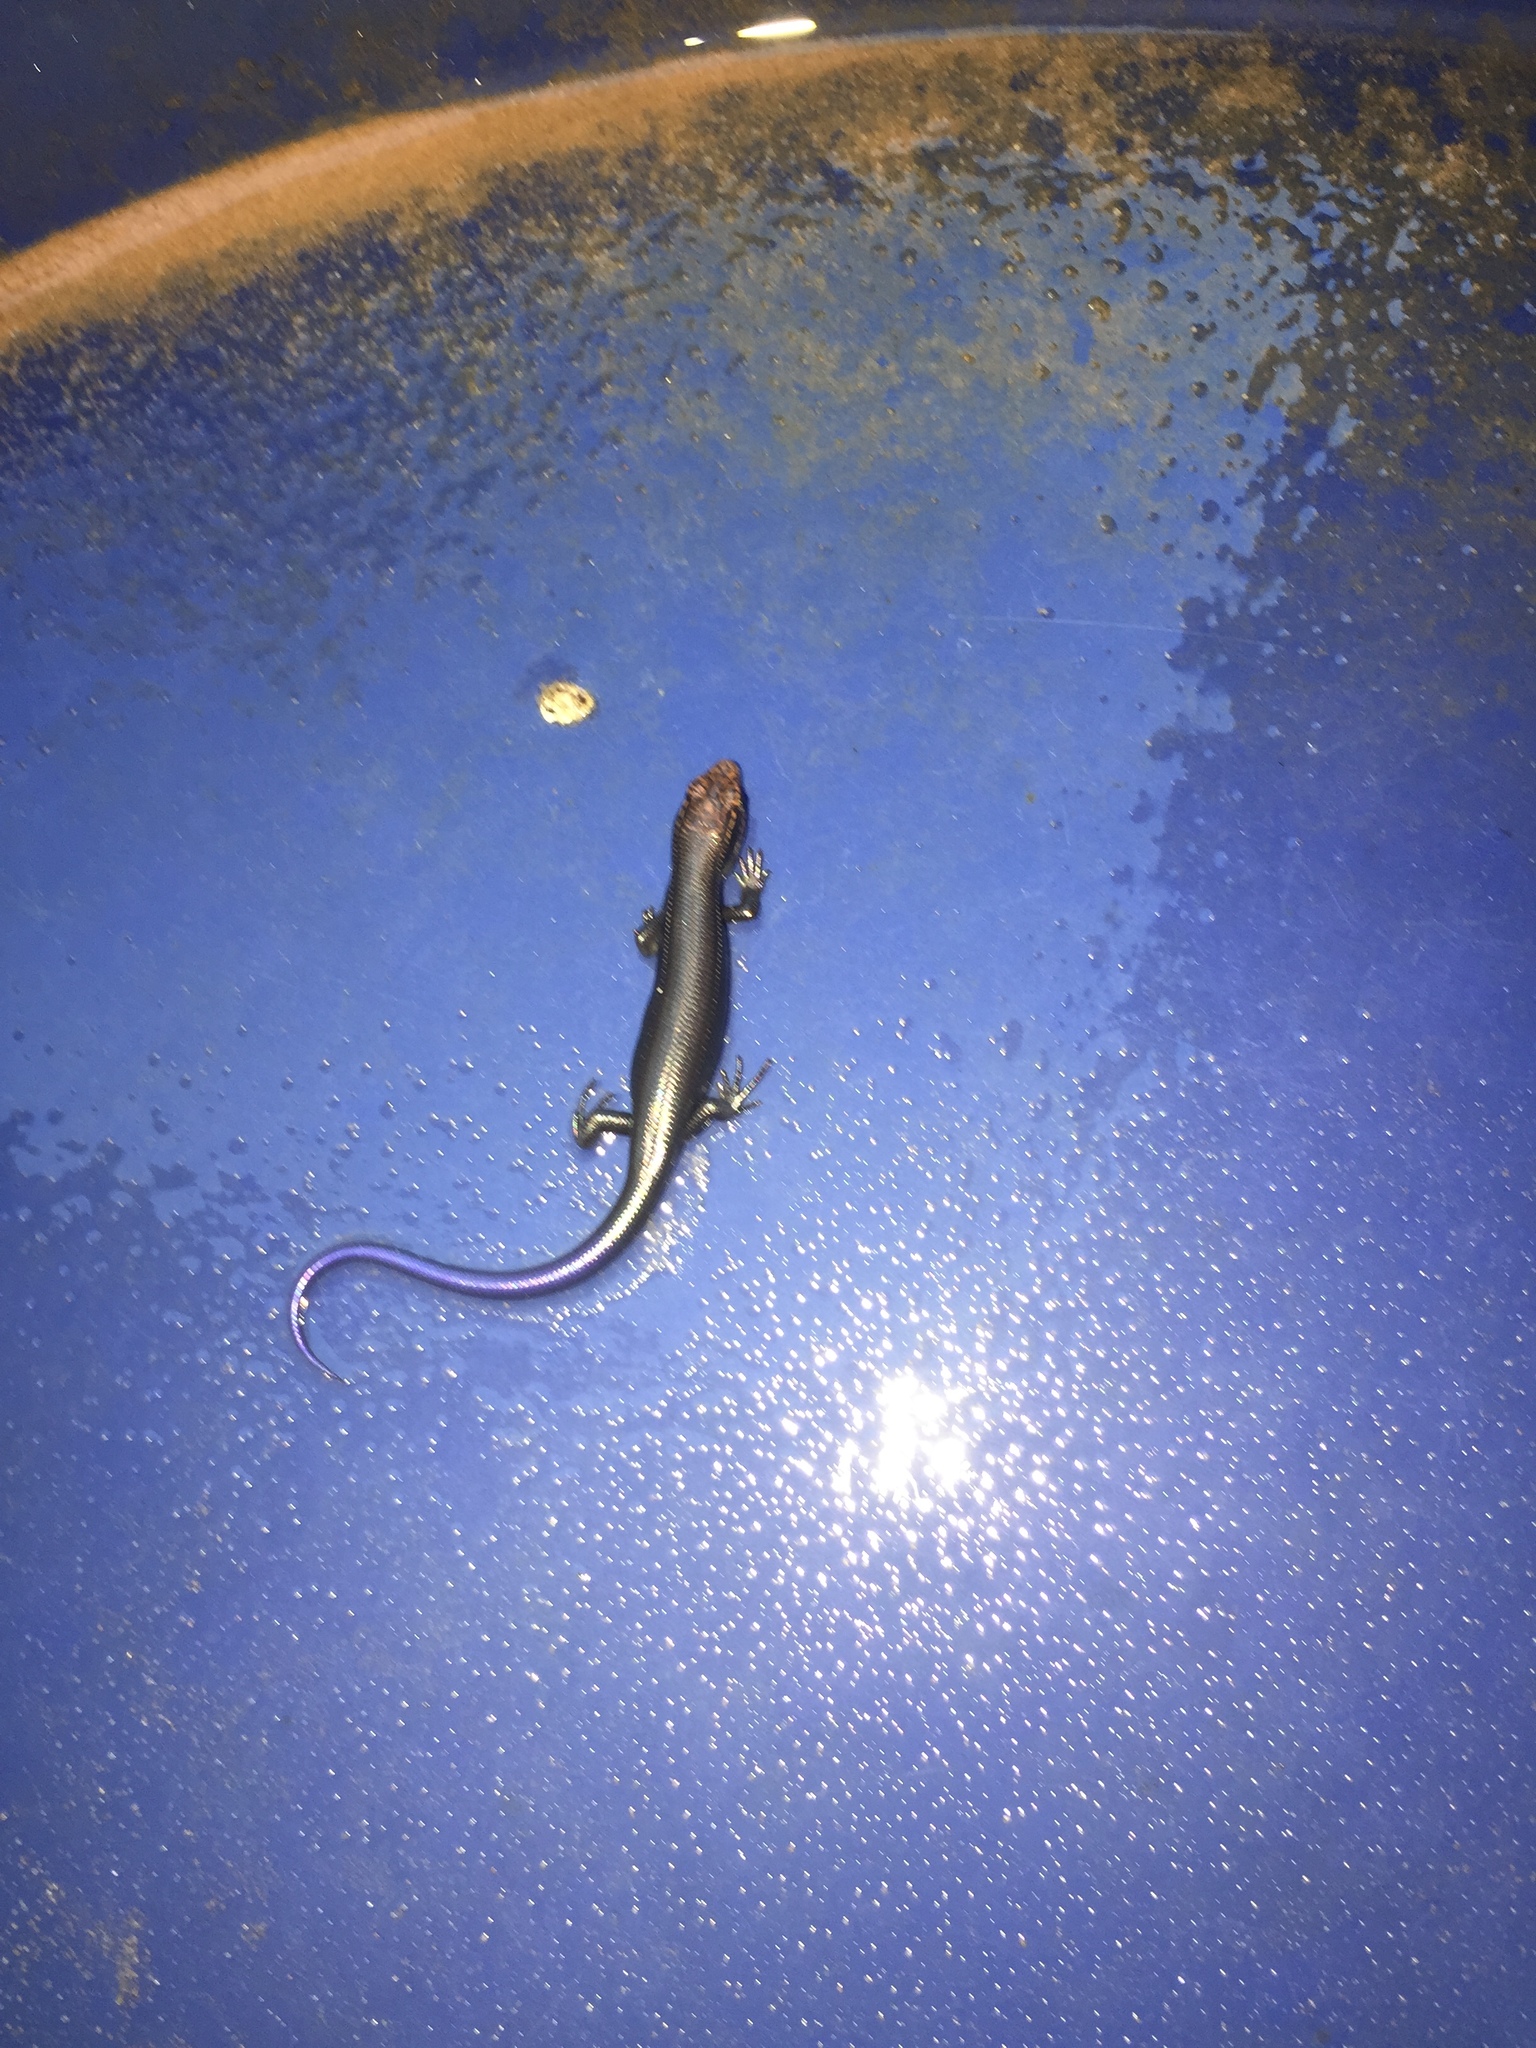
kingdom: Animalia
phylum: Chordata
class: Squamata
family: Scincidae
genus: Plestiodon
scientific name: Plestiodon obsoletus
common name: Great plains skink
